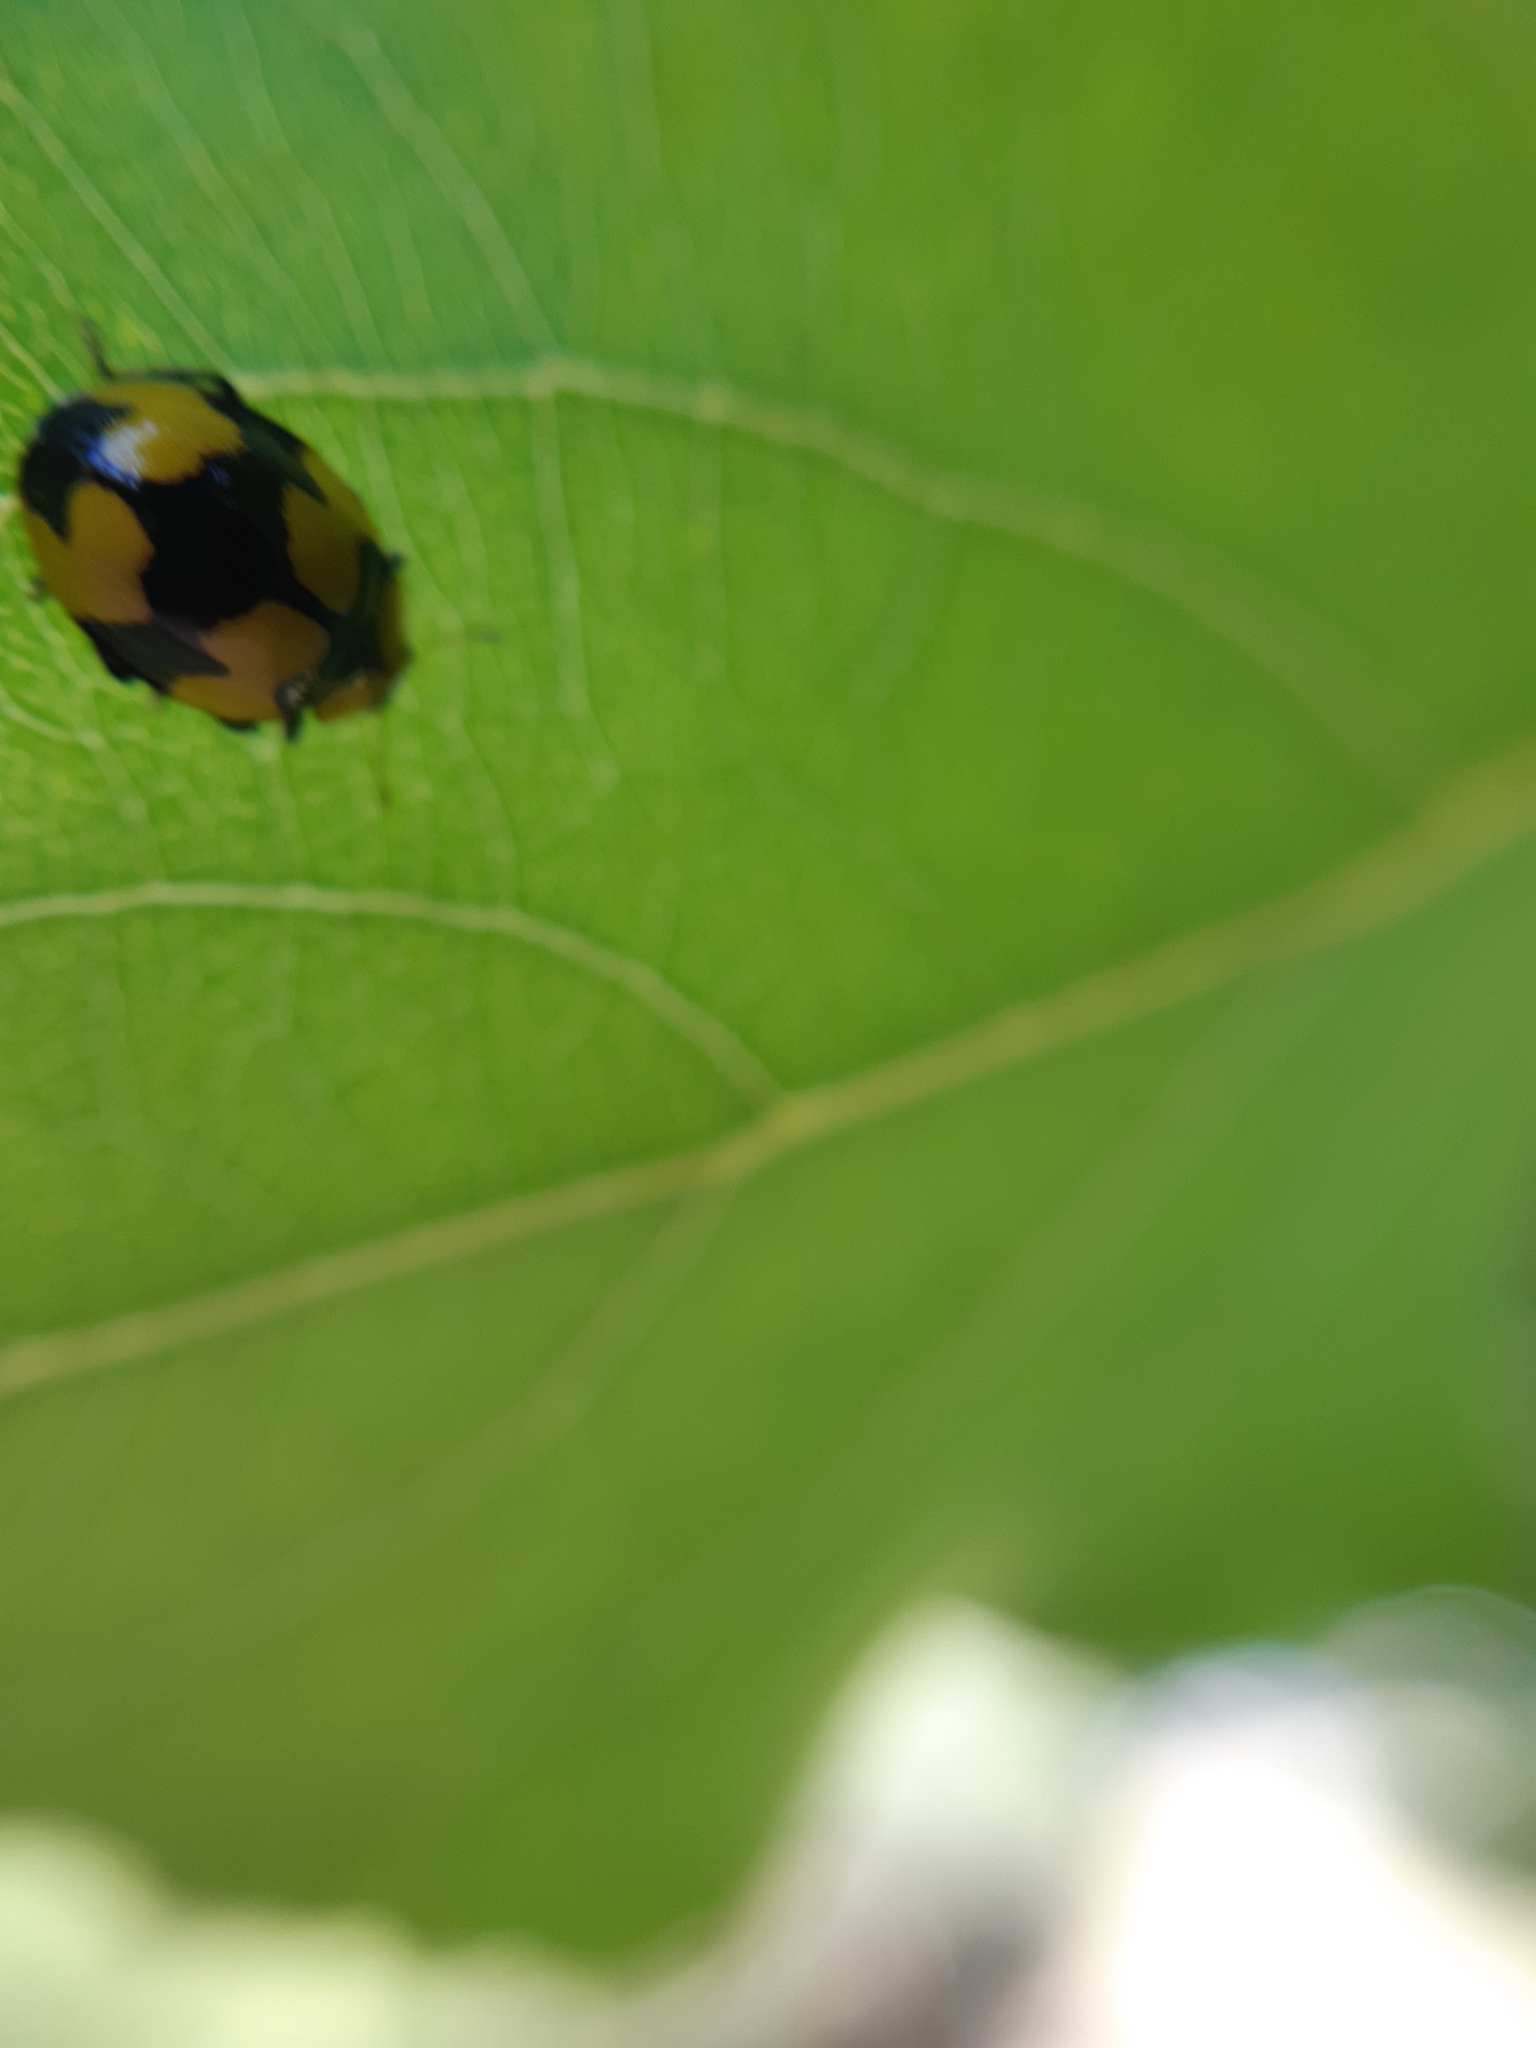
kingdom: Animalia
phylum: Arthropoda
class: Insecta
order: Coleoptera
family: Coccinellidae
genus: Illeis
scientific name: Illeis galbula
